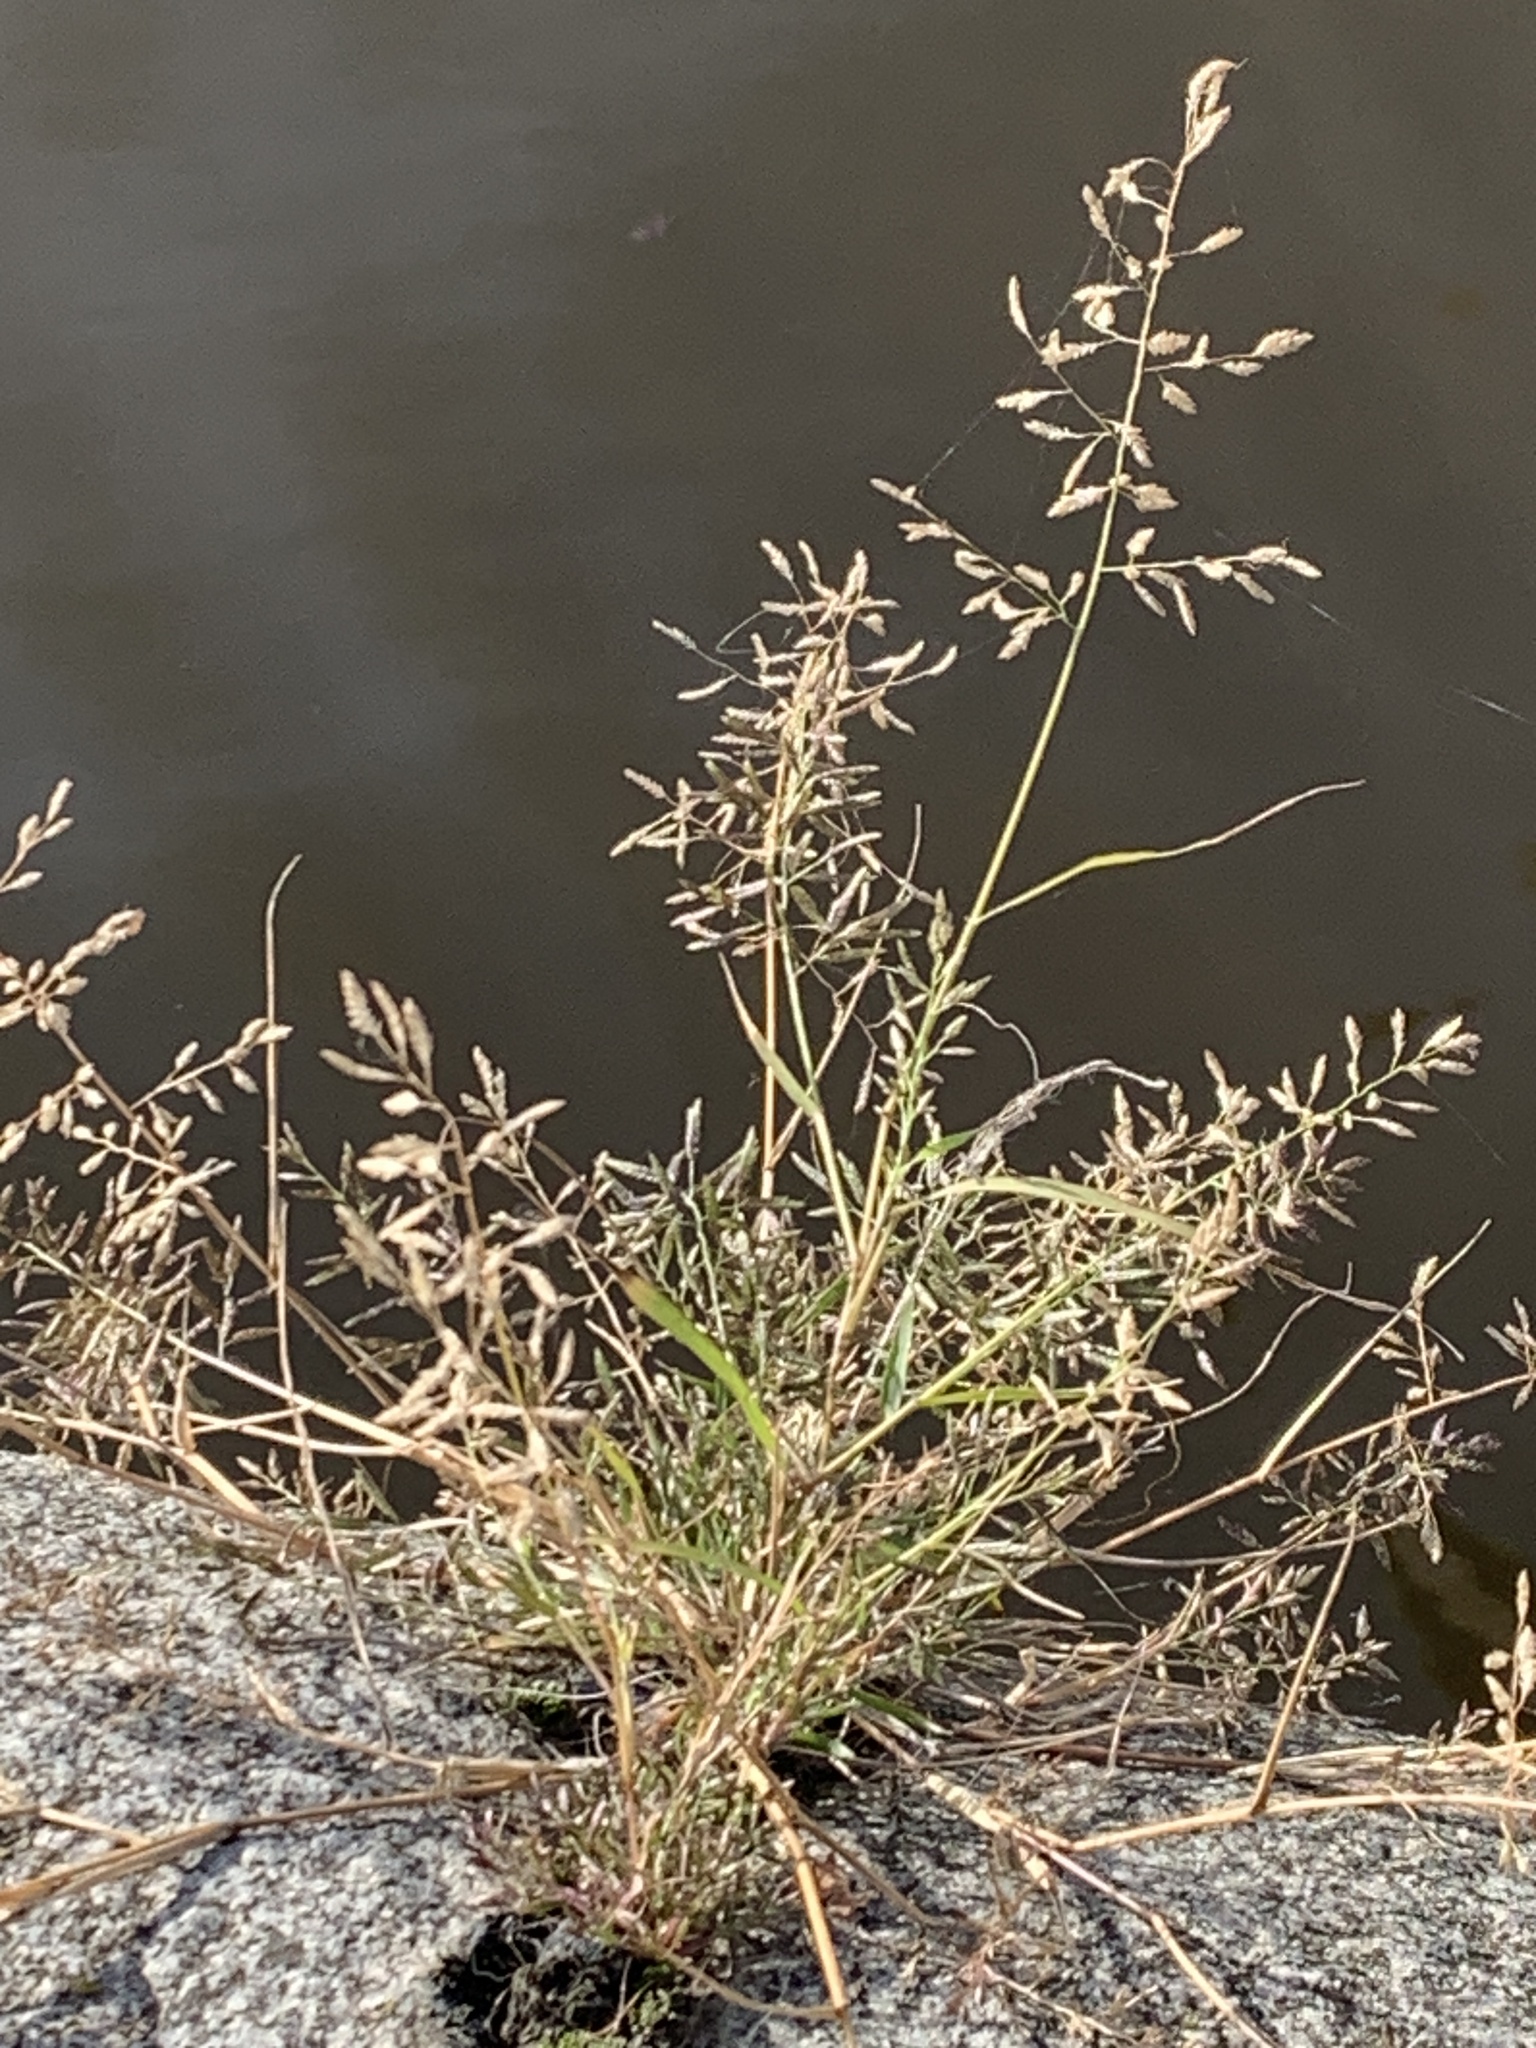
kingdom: Plantae
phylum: Tracheophyta
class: Liliopsida
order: Poales
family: Poaceae
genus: Eragrostis
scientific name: Eragrostis minor
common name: Small love-grass
